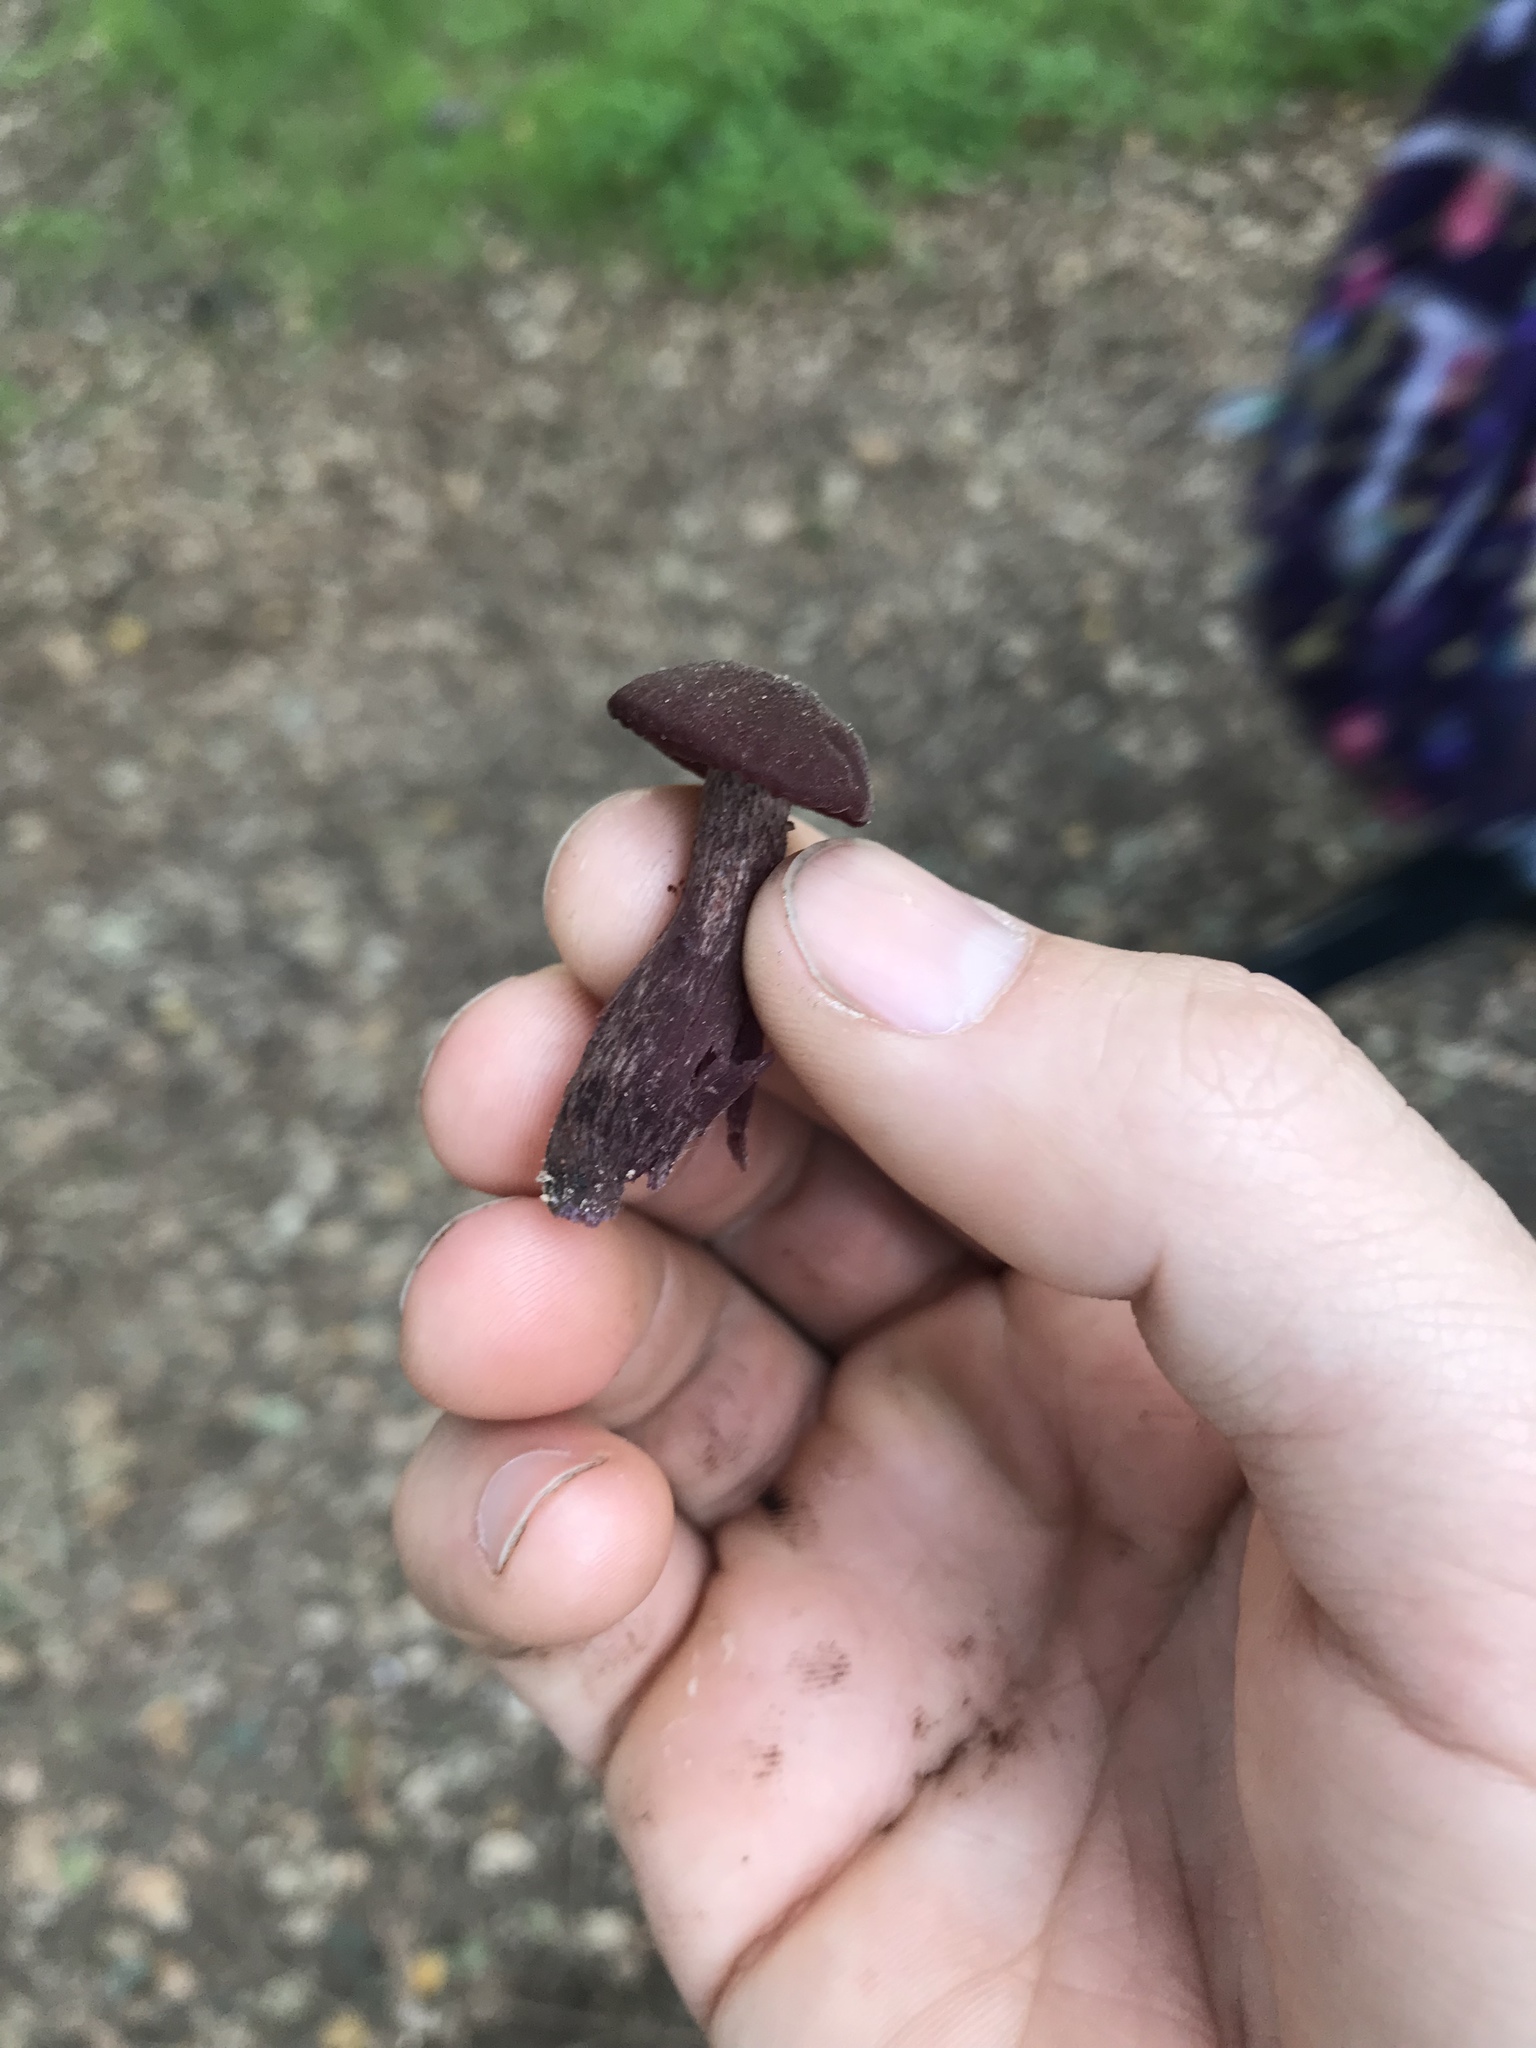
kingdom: Fungi
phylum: Basidiomycota
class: Agaricomycetes
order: Agaricales
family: Hydnangiaceae
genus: Laccaria
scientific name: Laccaria amethysteo-occidentalis
